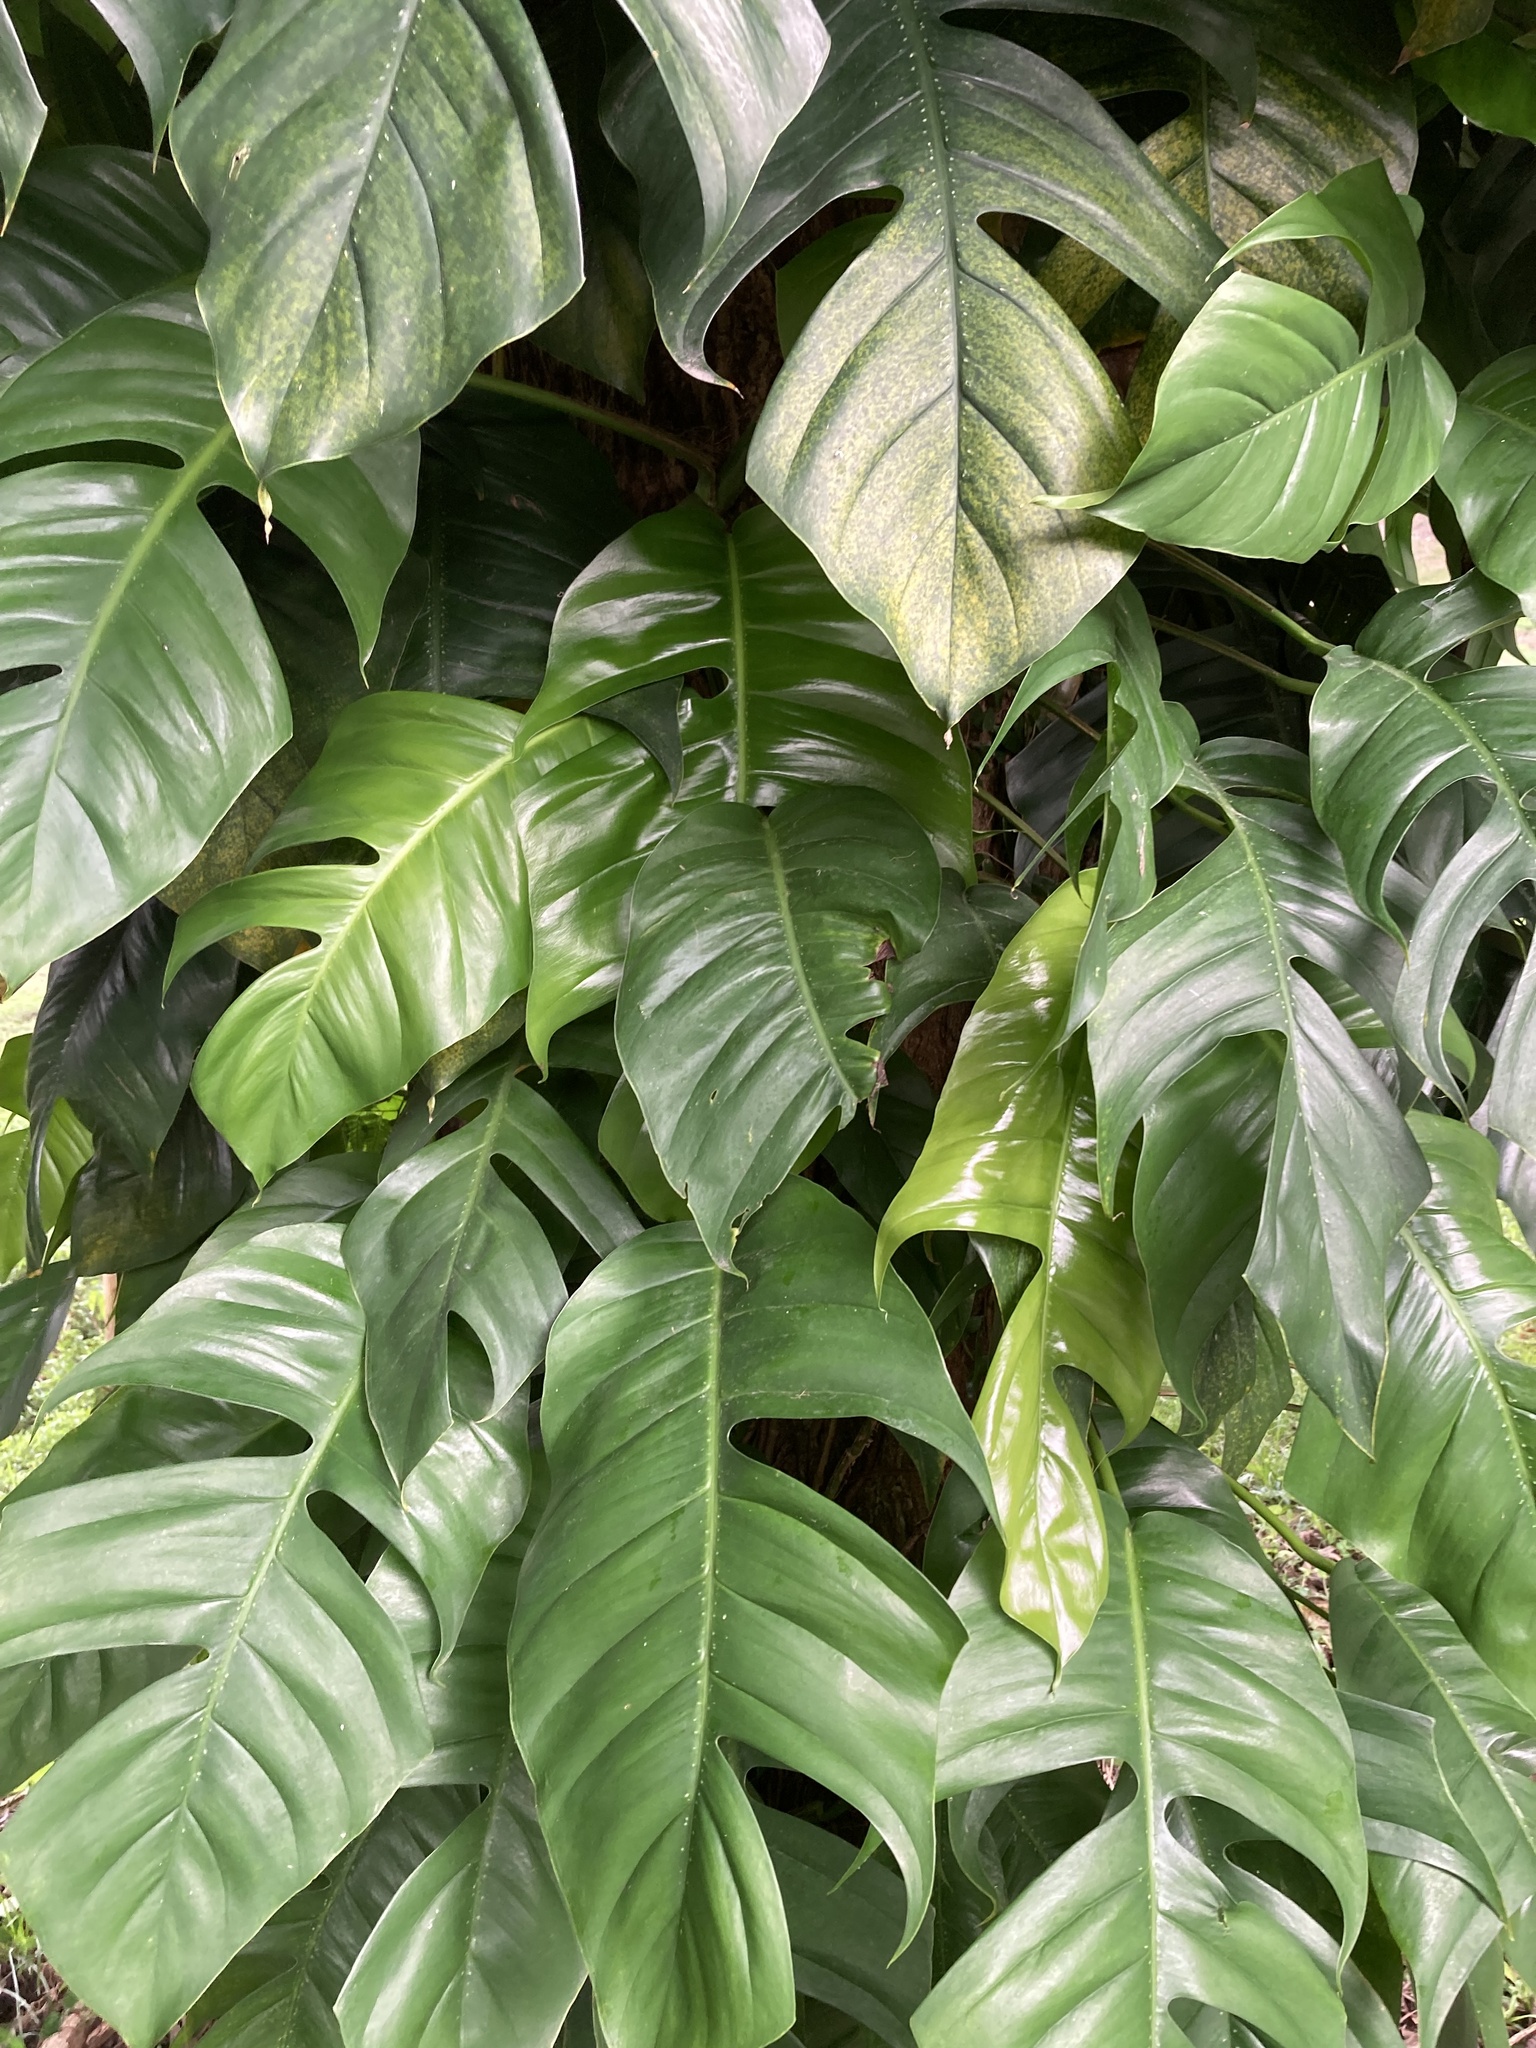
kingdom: Plantae
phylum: Tracheophyta
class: Liliopsida
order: Alismatales
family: Araceae
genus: Epipremnum
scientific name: Epipremnum pinnatum
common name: Centipede tongavine
